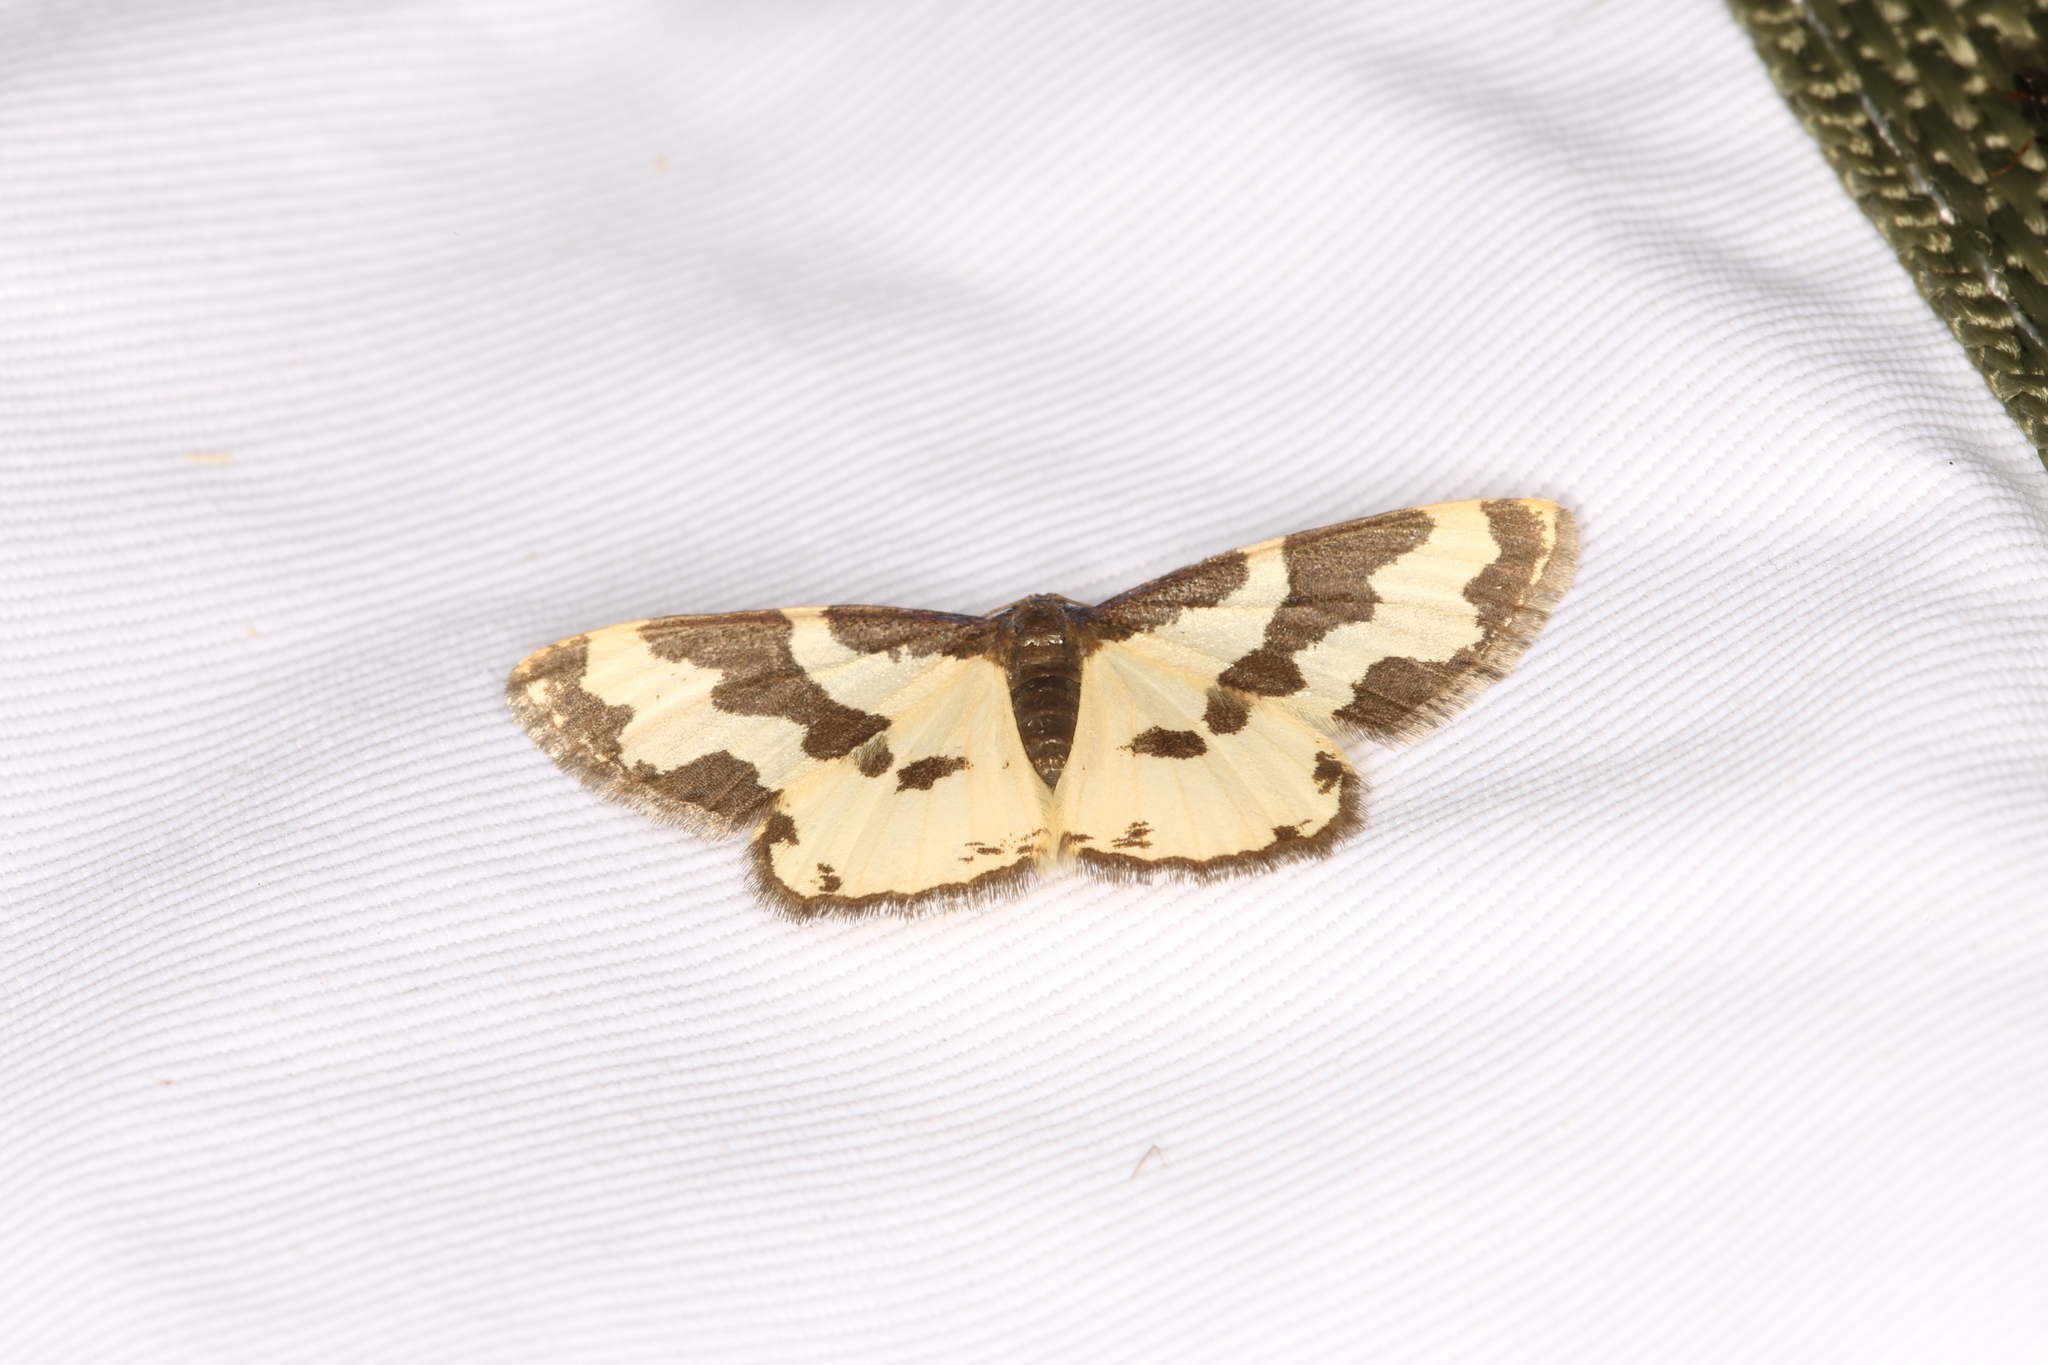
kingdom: Animalia
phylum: Arthropoda
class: Insecta
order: Lepidoptera
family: Geometridae
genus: Lomaspilis
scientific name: Lomaspilis marginata
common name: Clouded border
